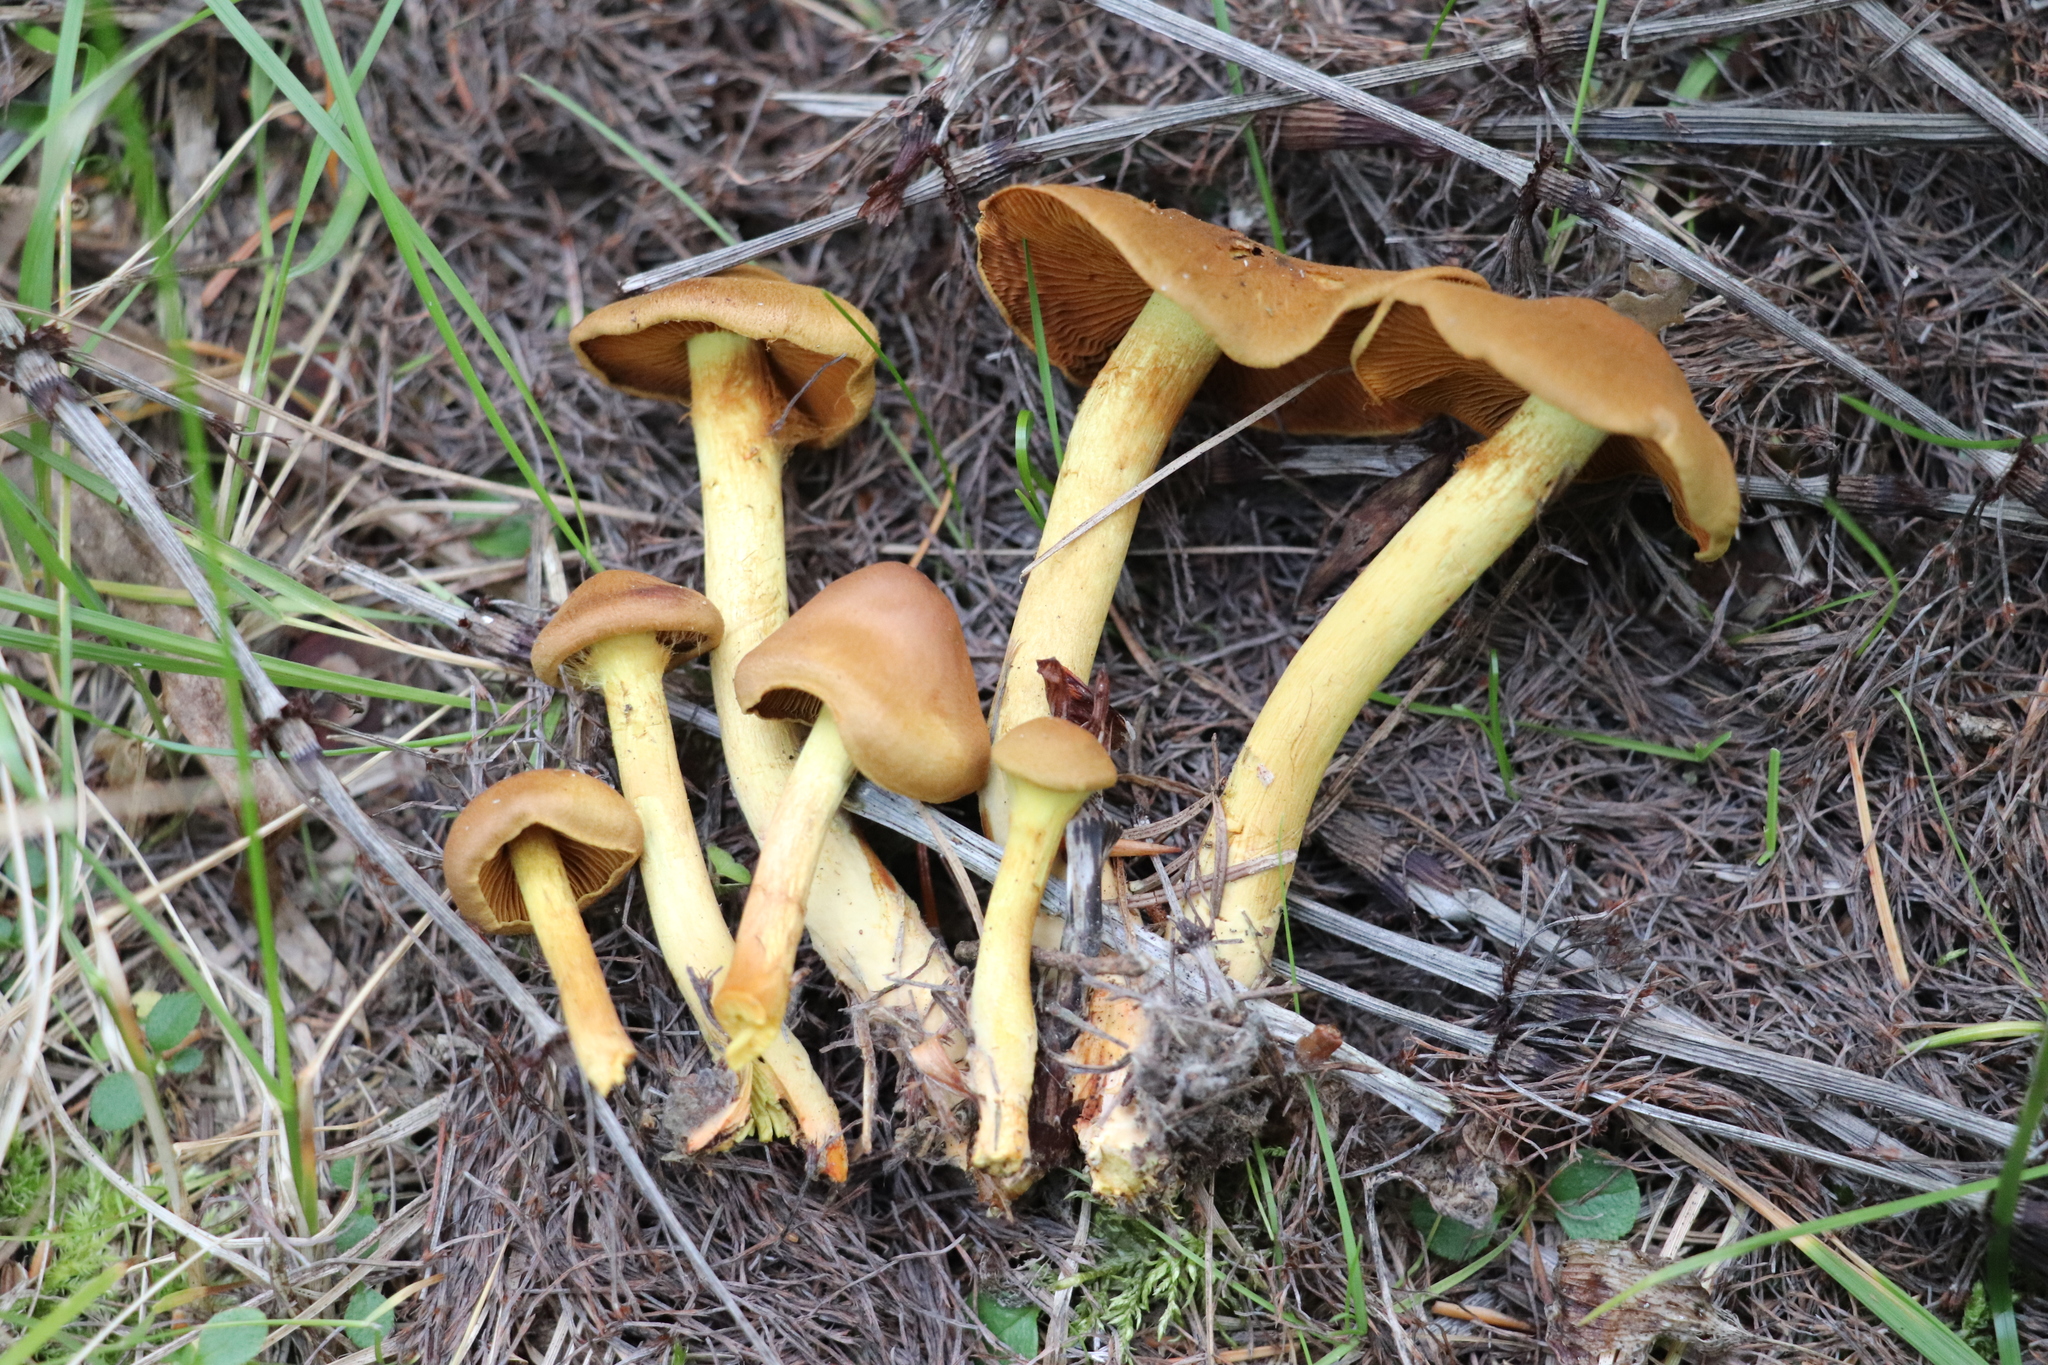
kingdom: Fungi
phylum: Basidiomycota
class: Agaricomycetes
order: Agaricales
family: Cortinariaceae
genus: Cortinarius
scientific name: Cortinarius cinnamomeus
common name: Cinnamon webcap
